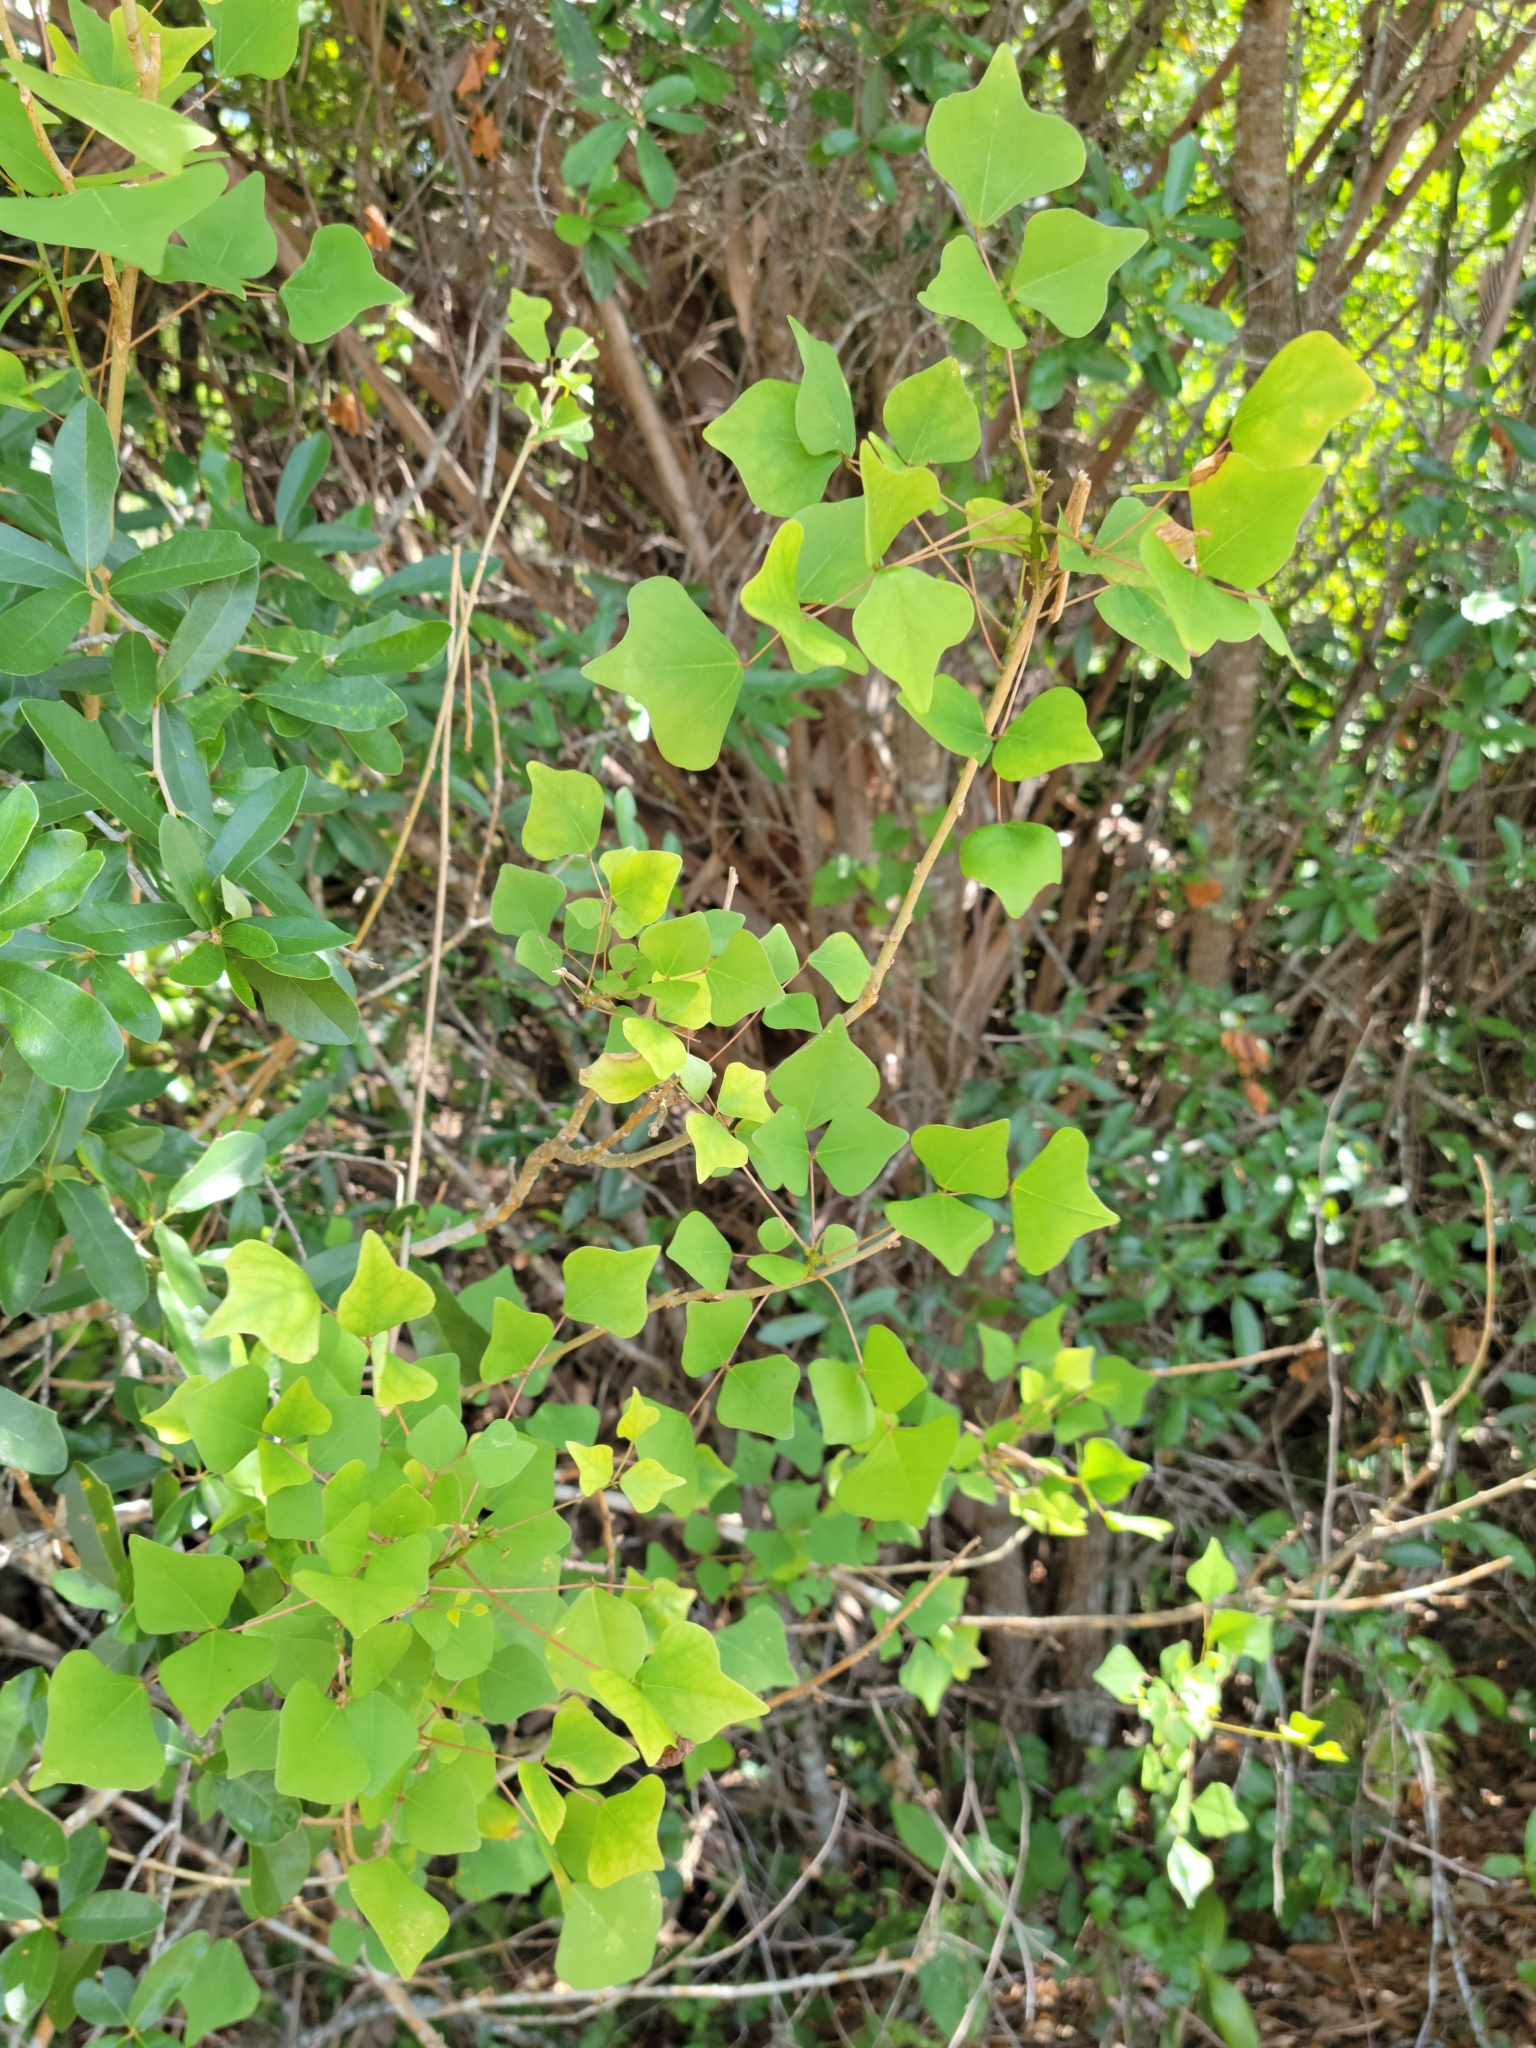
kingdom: Plantae
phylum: Tracheophyta
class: Magnoliopsida
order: Fabales
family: Fabaceae
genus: Erythrina
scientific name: Erythrina herbacea
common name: Coral-bean
